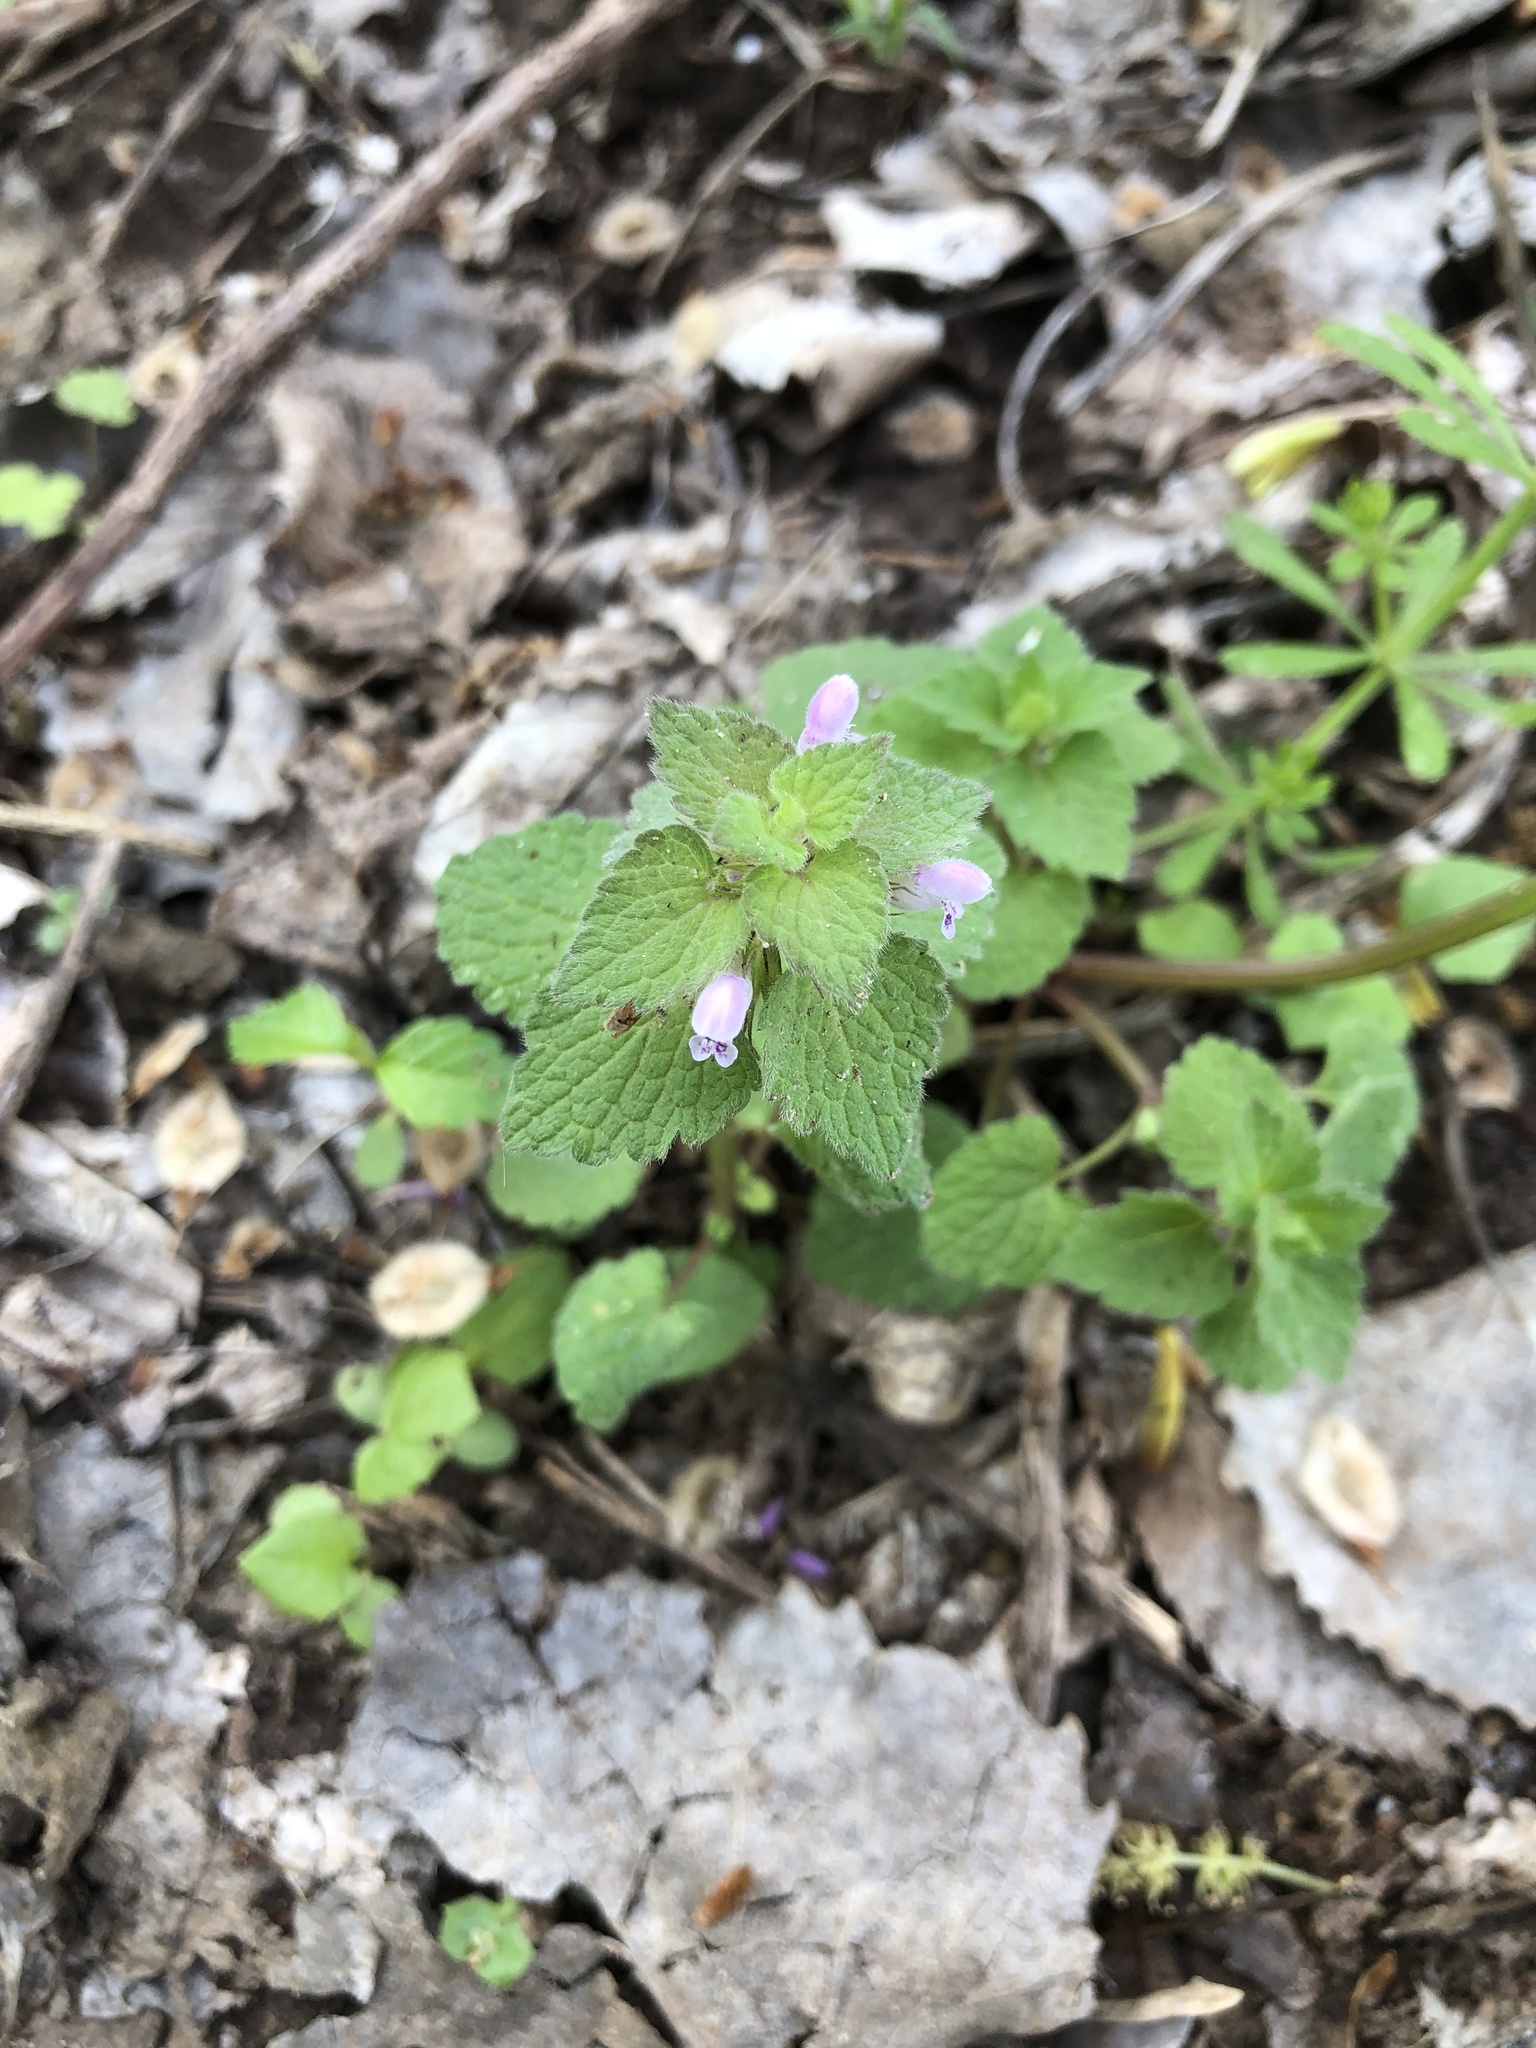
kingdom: Plantae
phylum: Tracheophyta
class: Magnoliopsida
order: Lamiales
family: Lamiaceae
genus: Lamium
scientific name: Lamium purpureum
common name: Red dead-nettle
